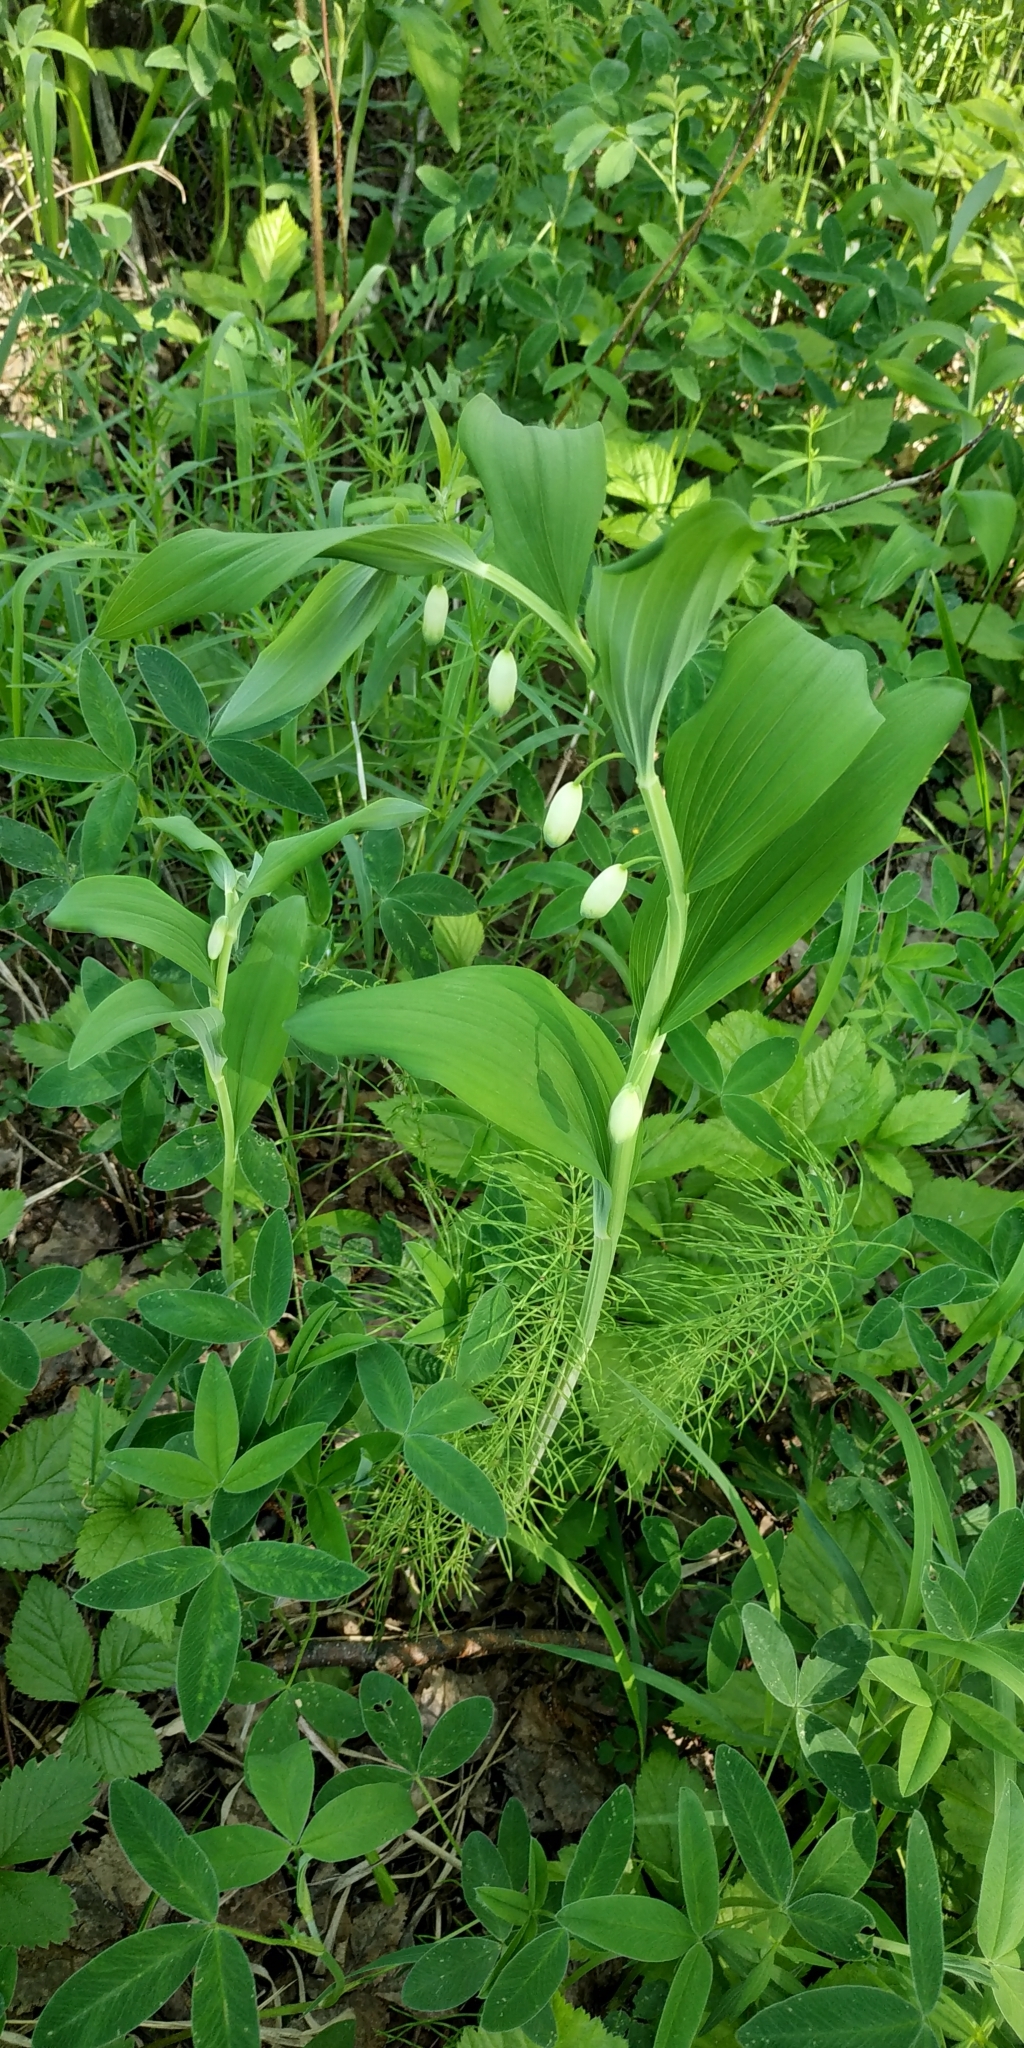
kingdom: Plantae
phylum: Tracheophyta
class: Liliopsida
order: Asparagales
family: Asparagaceae
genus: Polygonatum
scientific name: Polygonatum odoratum
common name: Angular solomon's-seal
